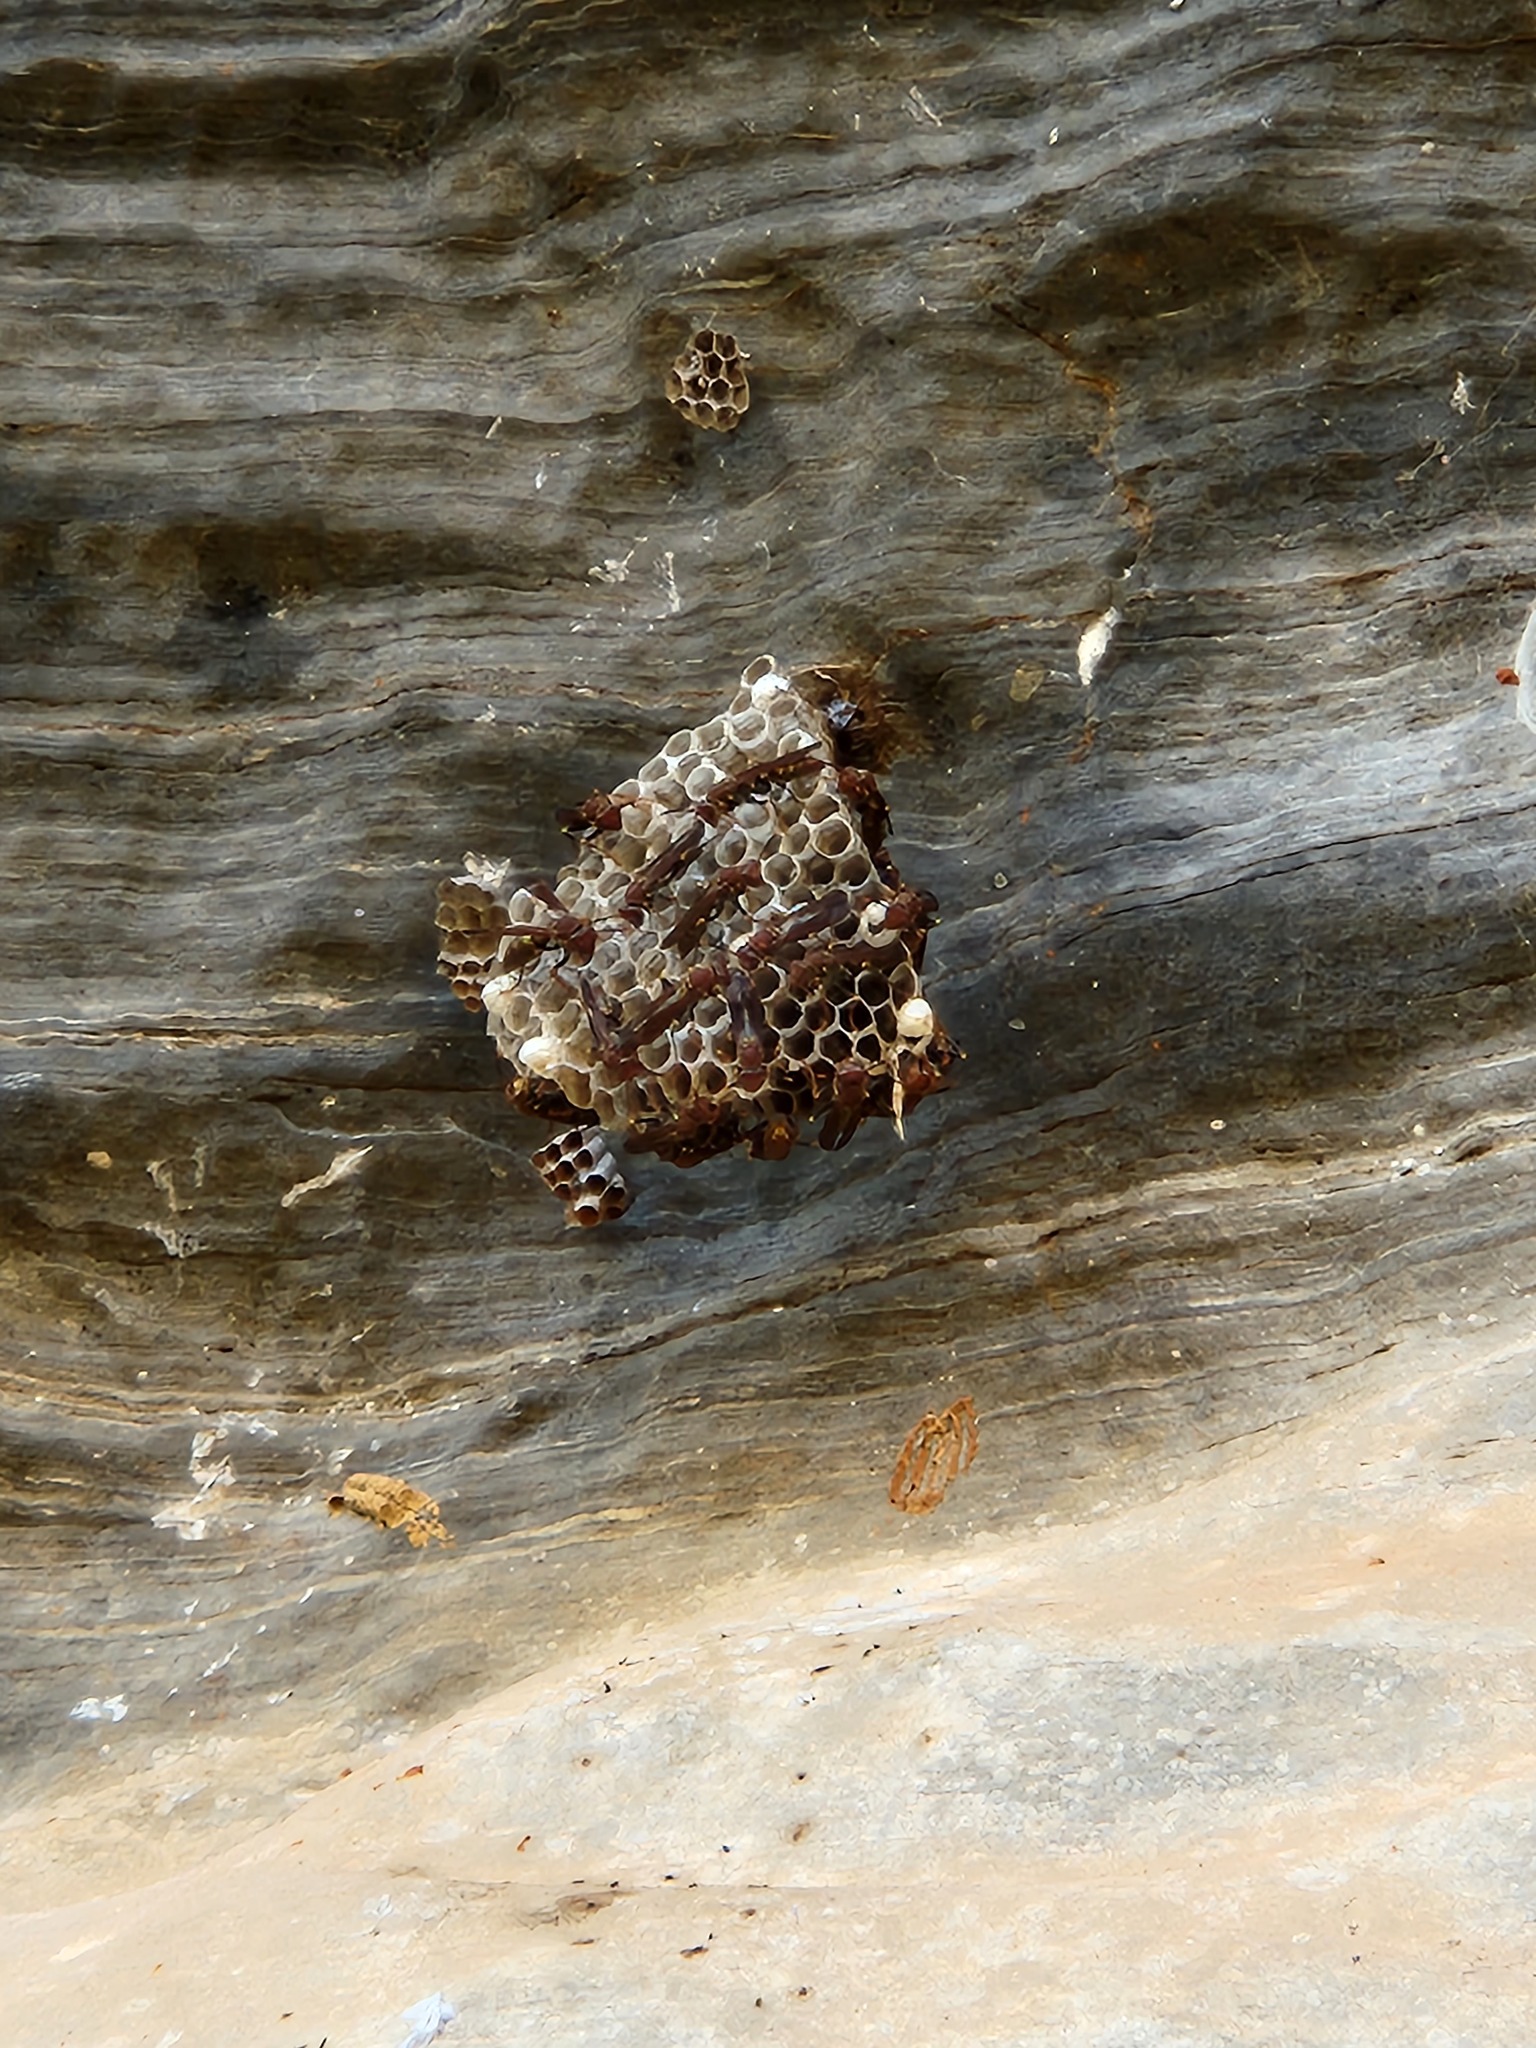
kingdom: Animalia
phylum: Arthropoda
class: Insecta
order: Hymenoptera
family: Eumenidae
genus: Polistes
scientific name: Polistes versicolor
